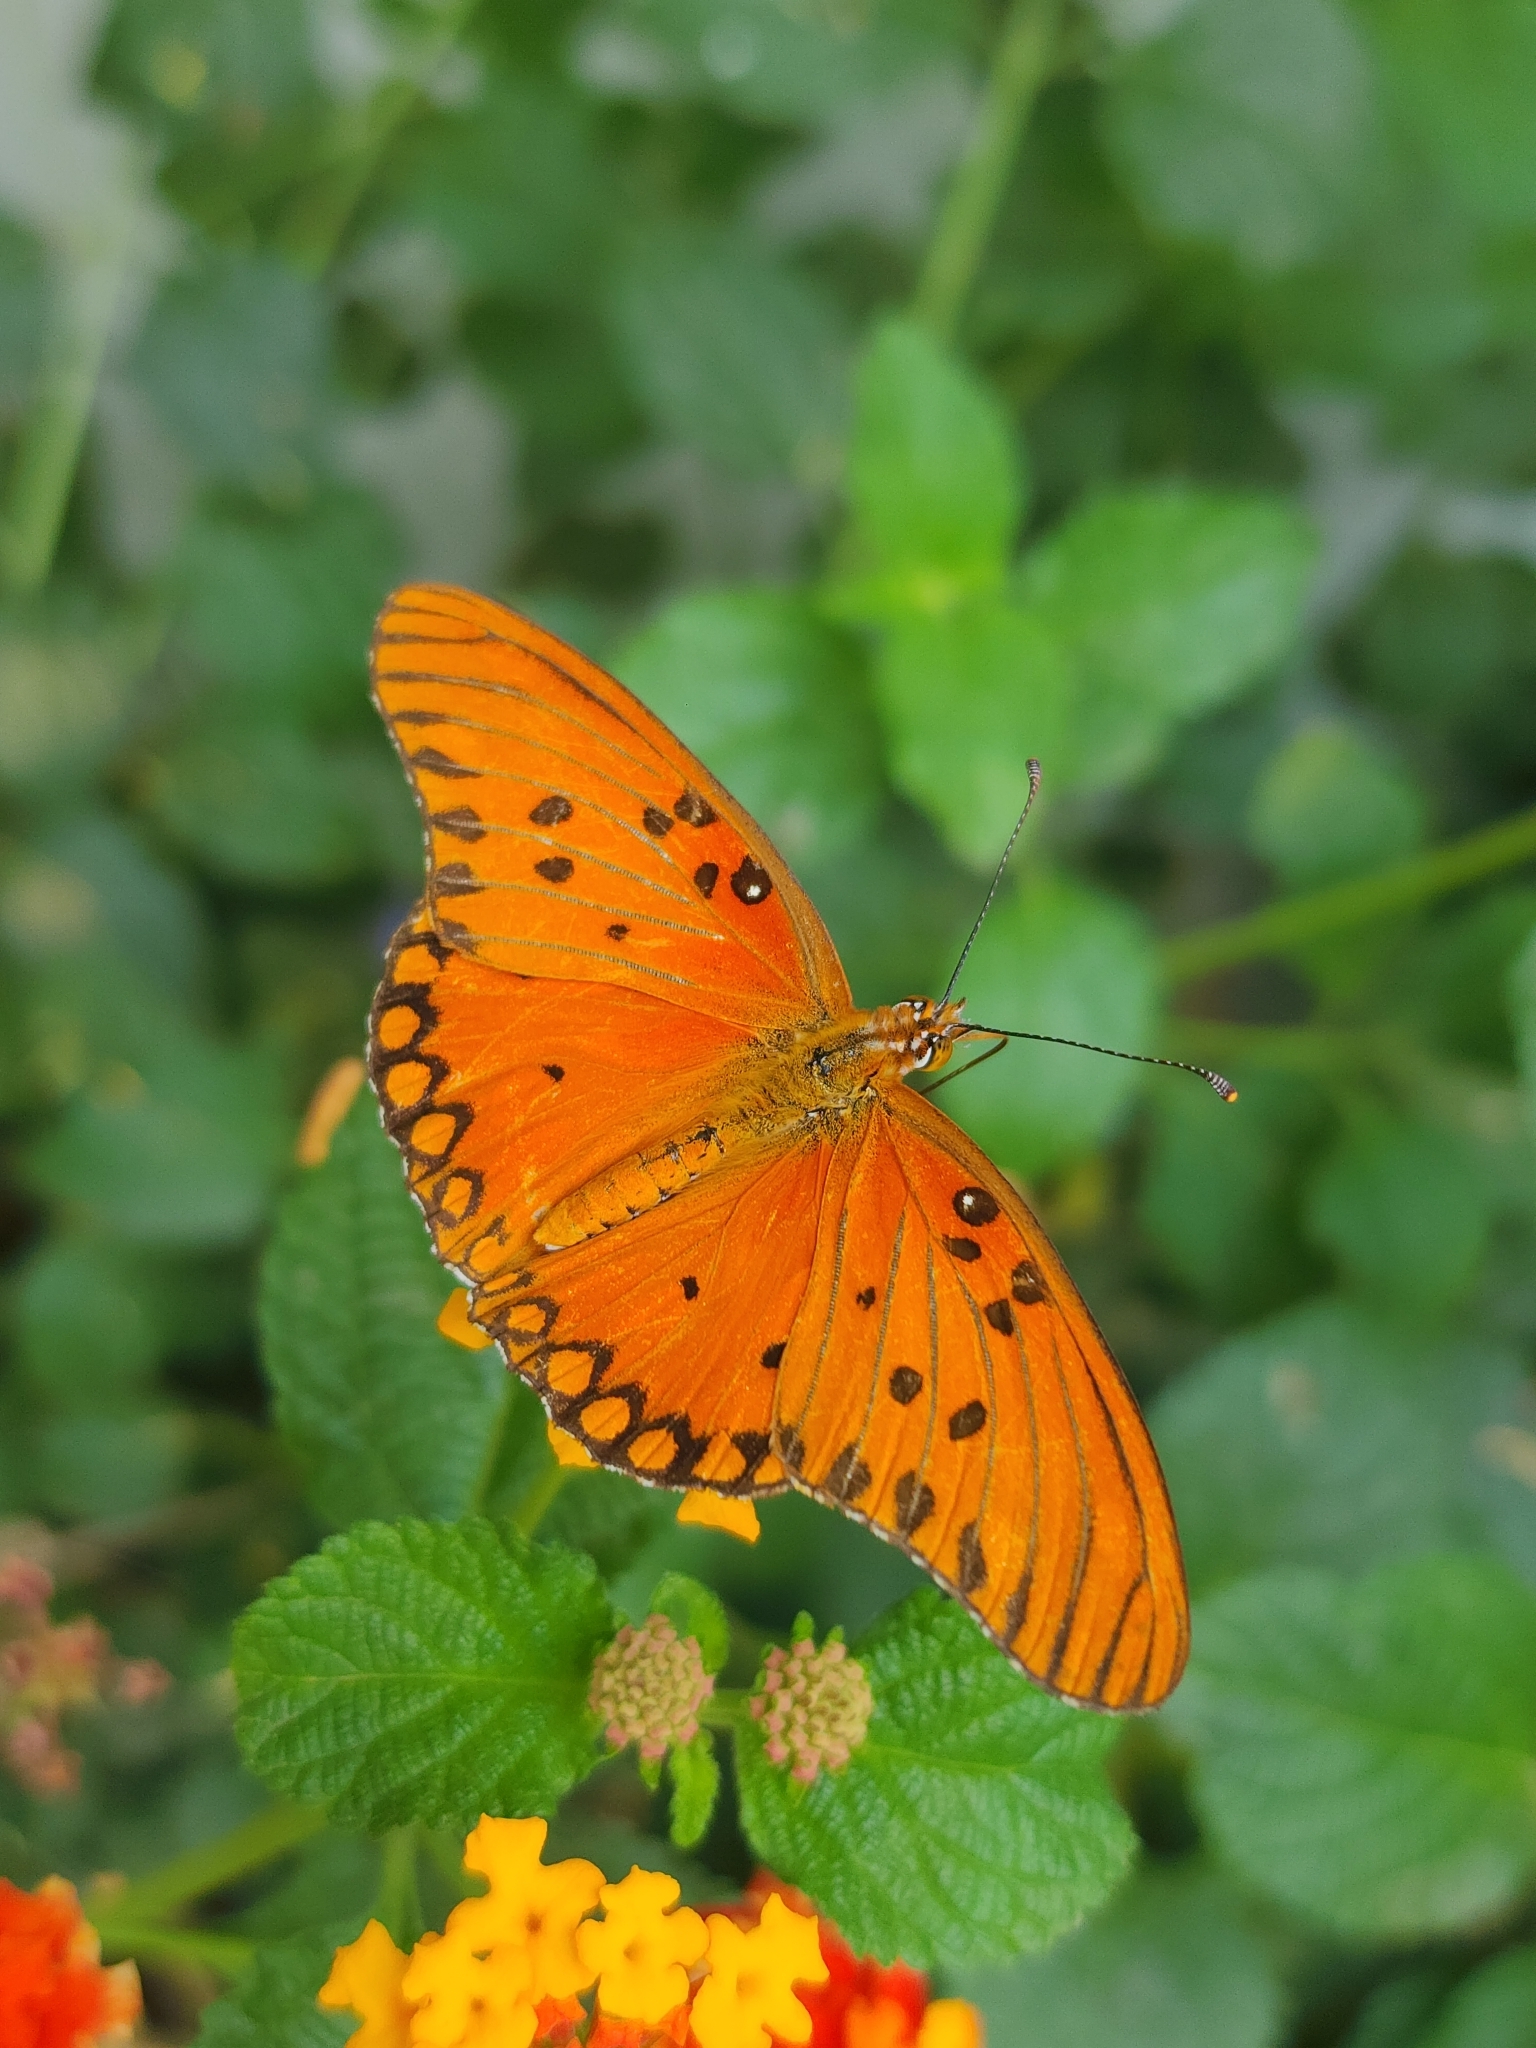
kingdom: Animalia
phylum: Arthropoda
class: Insecta
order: Lepidoptera
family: Nymphalidae
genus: Dione
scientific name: Dione vanillae
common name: Gulf fritillary
